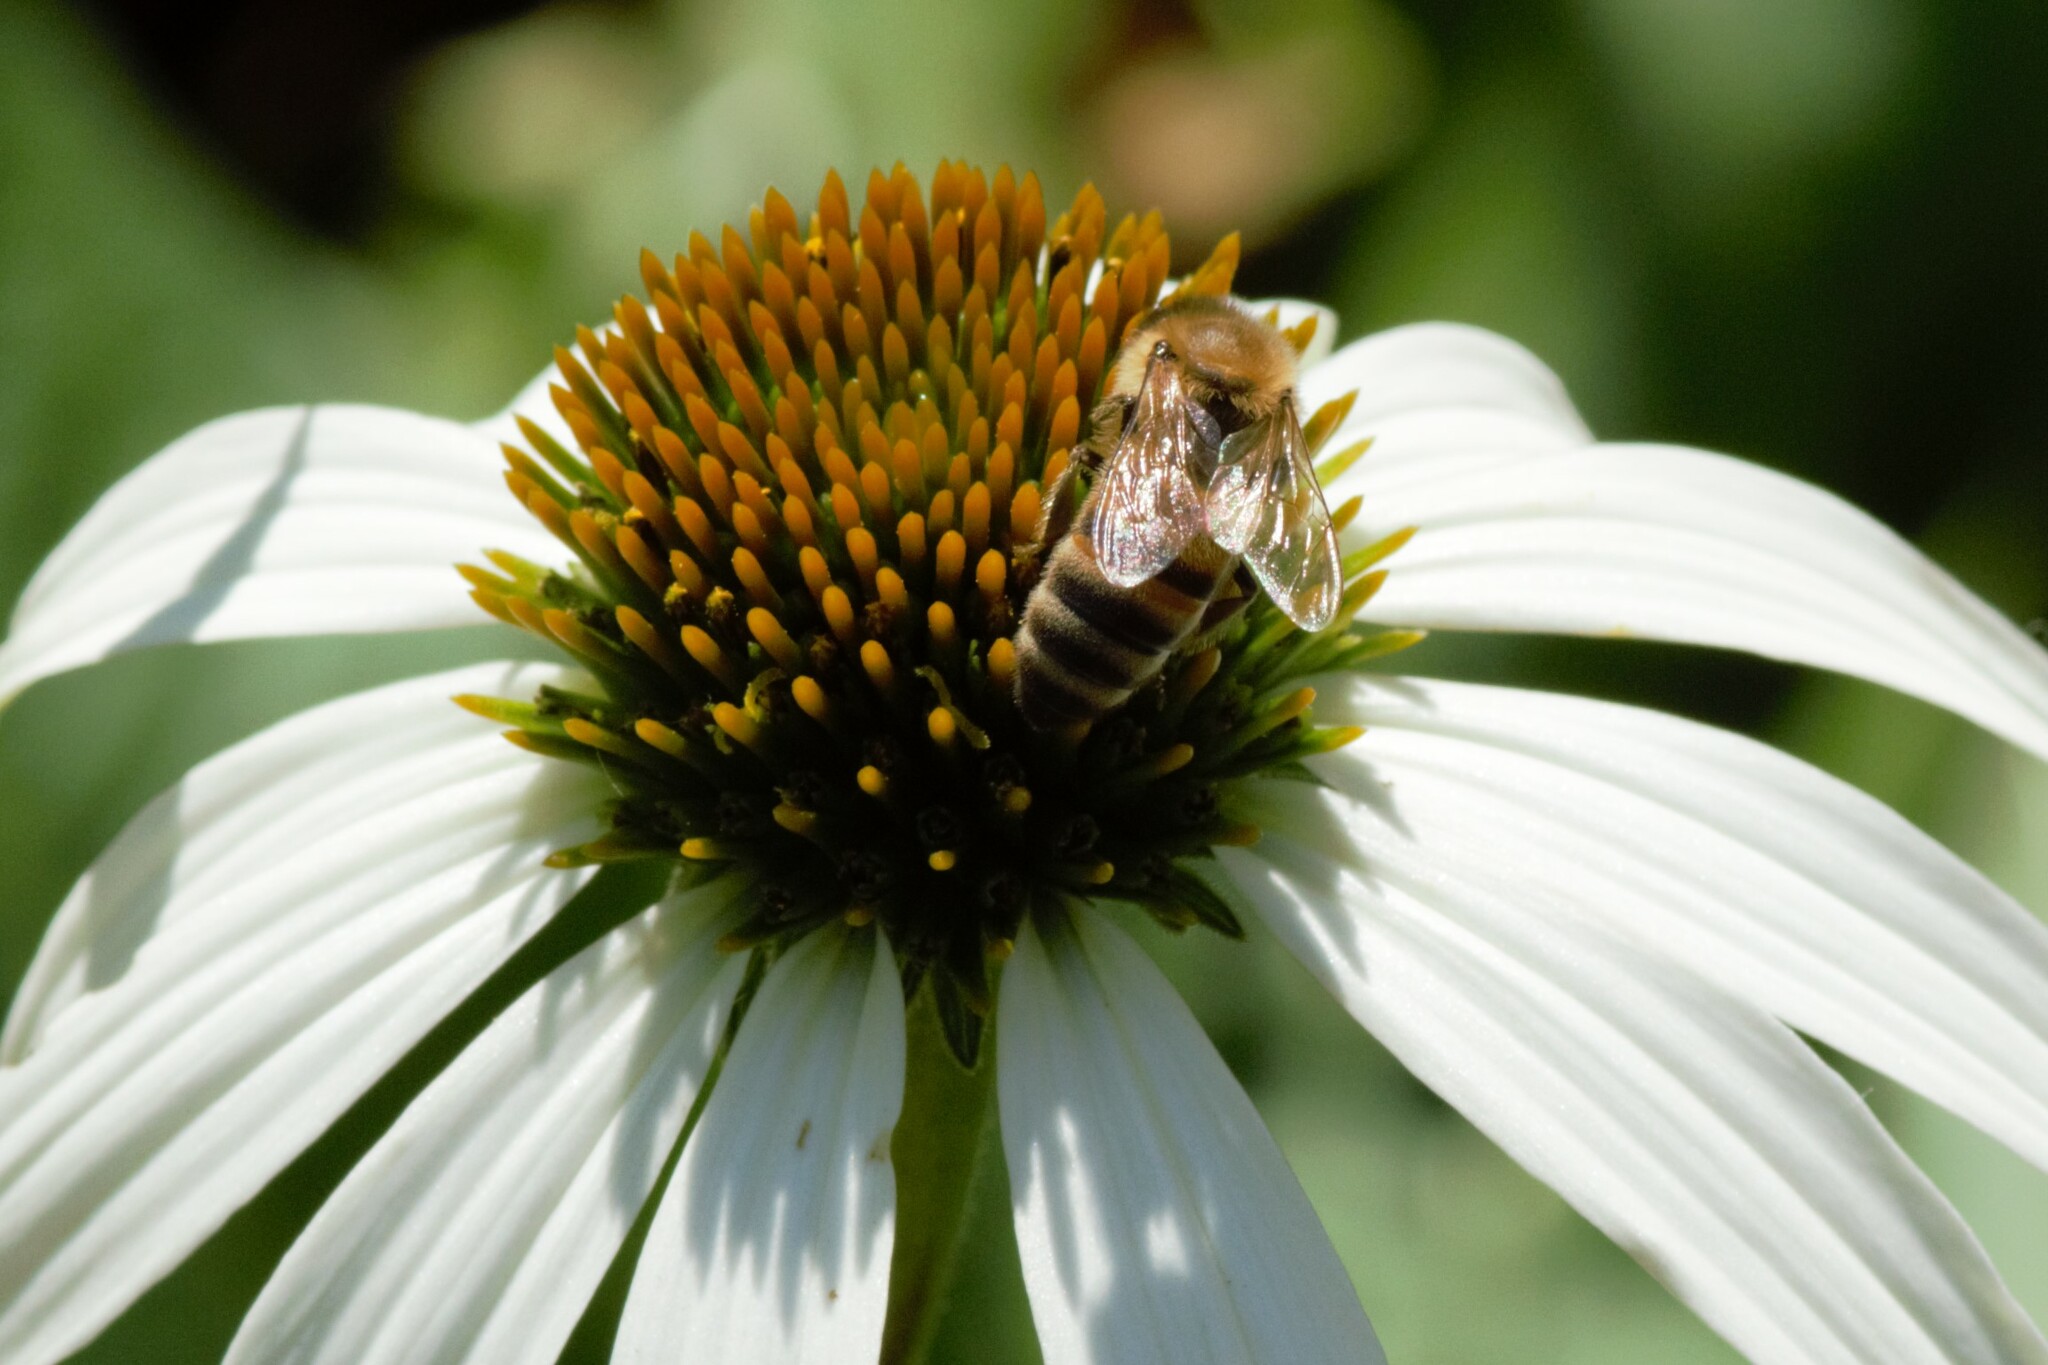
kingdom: Animalia
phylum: Arthropoda
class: Insecta
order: Hymenoptera
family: Apidae
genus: Apis
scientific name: Apis mellifera
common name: Honey bee
